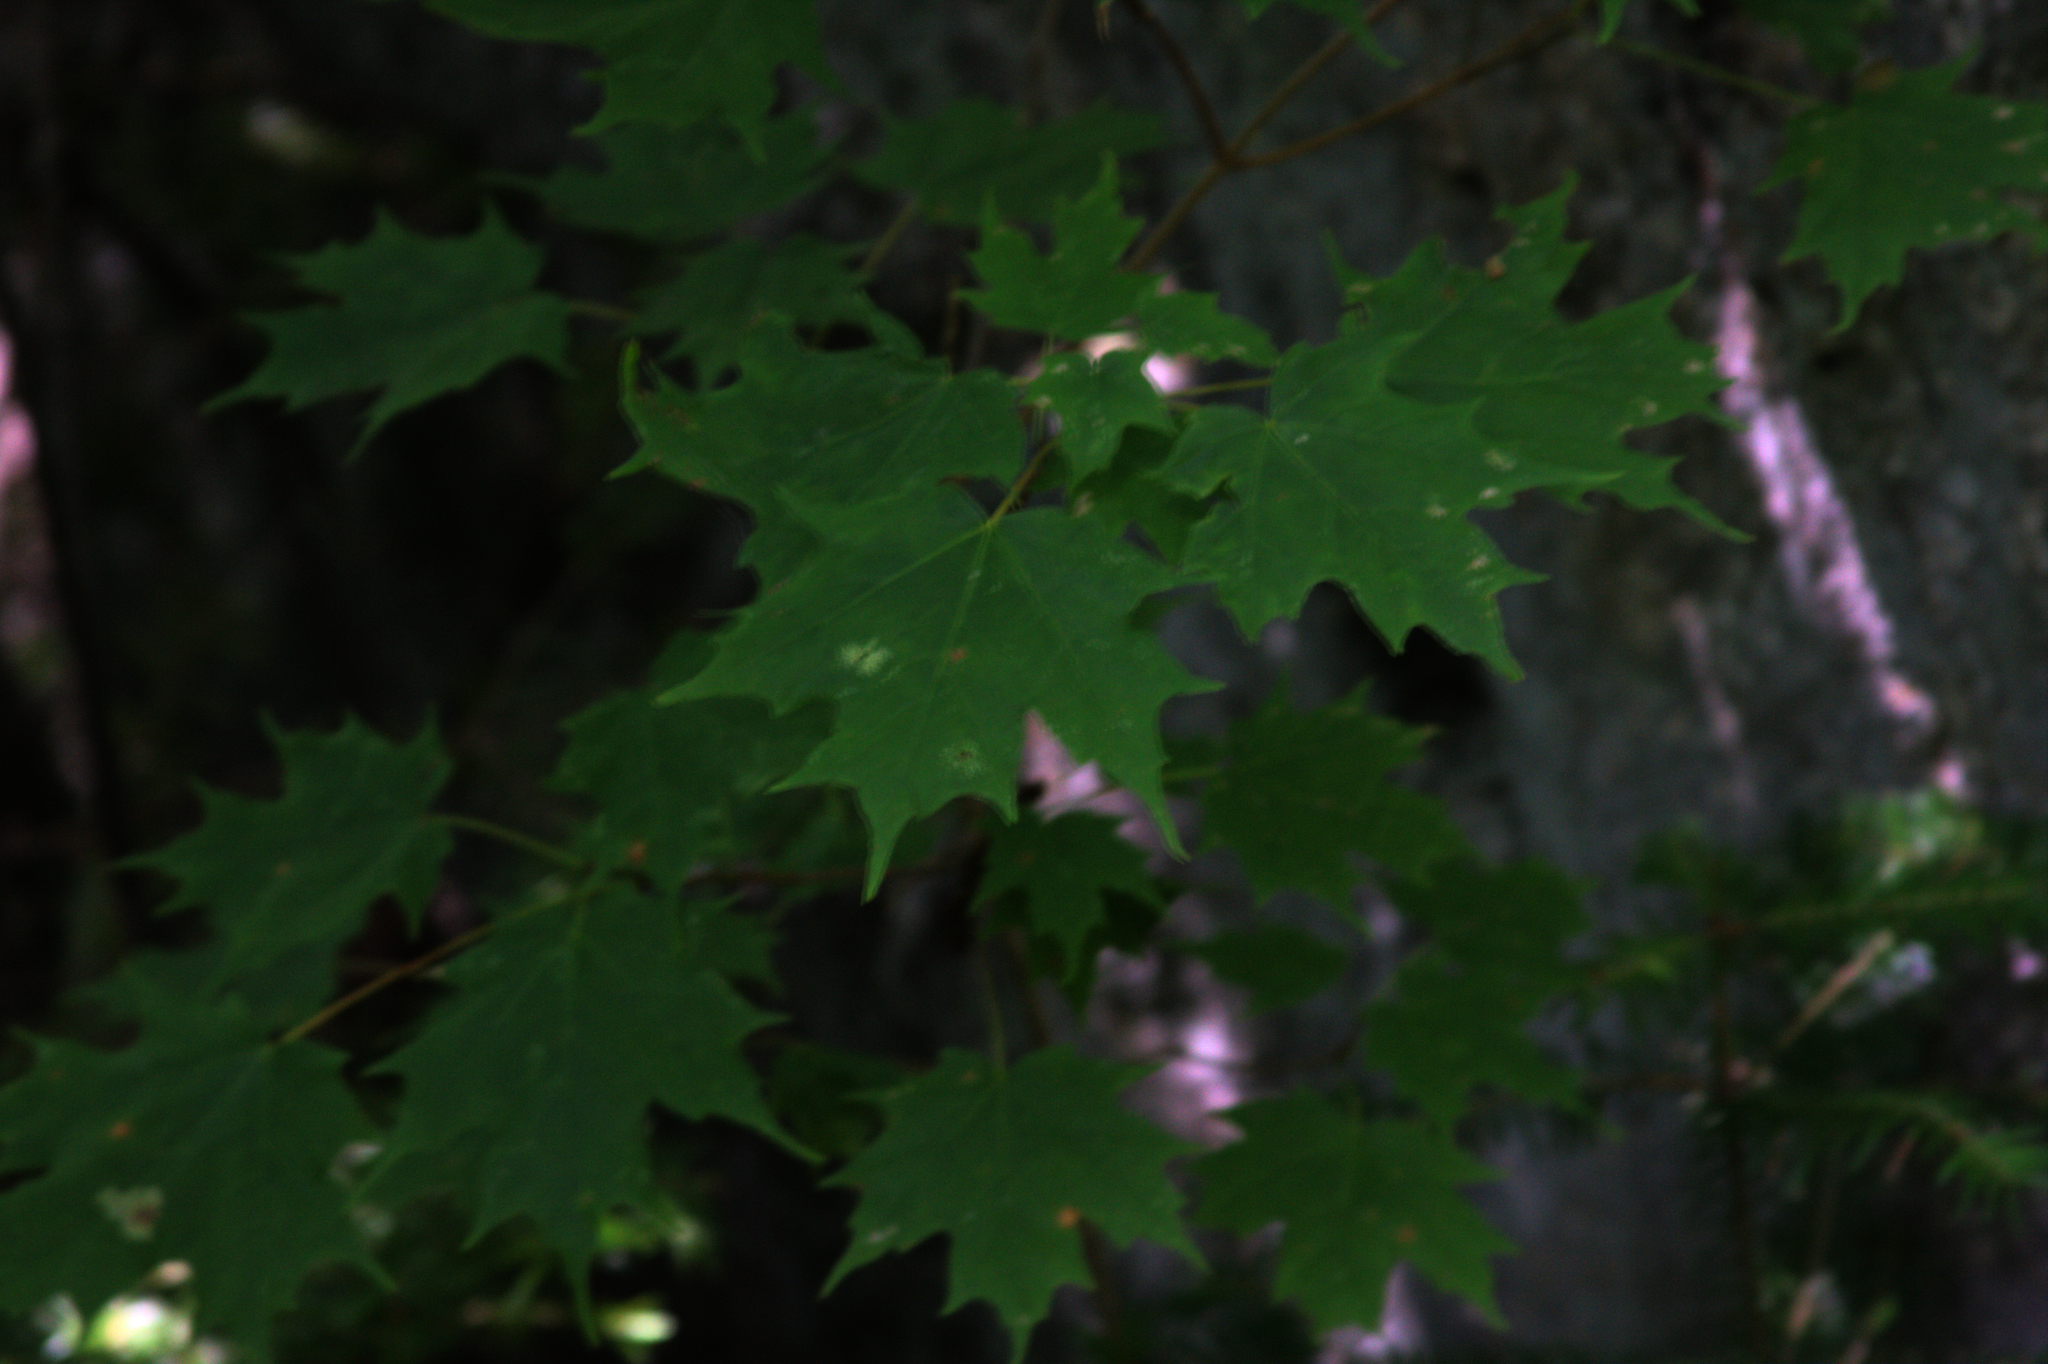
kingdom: Plantae
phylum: Tracheophyta
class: Magnoliopsida
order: Sapindales
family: Sapindaceae
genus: Acer
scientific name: Acer saccharum
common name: Sugar maple
